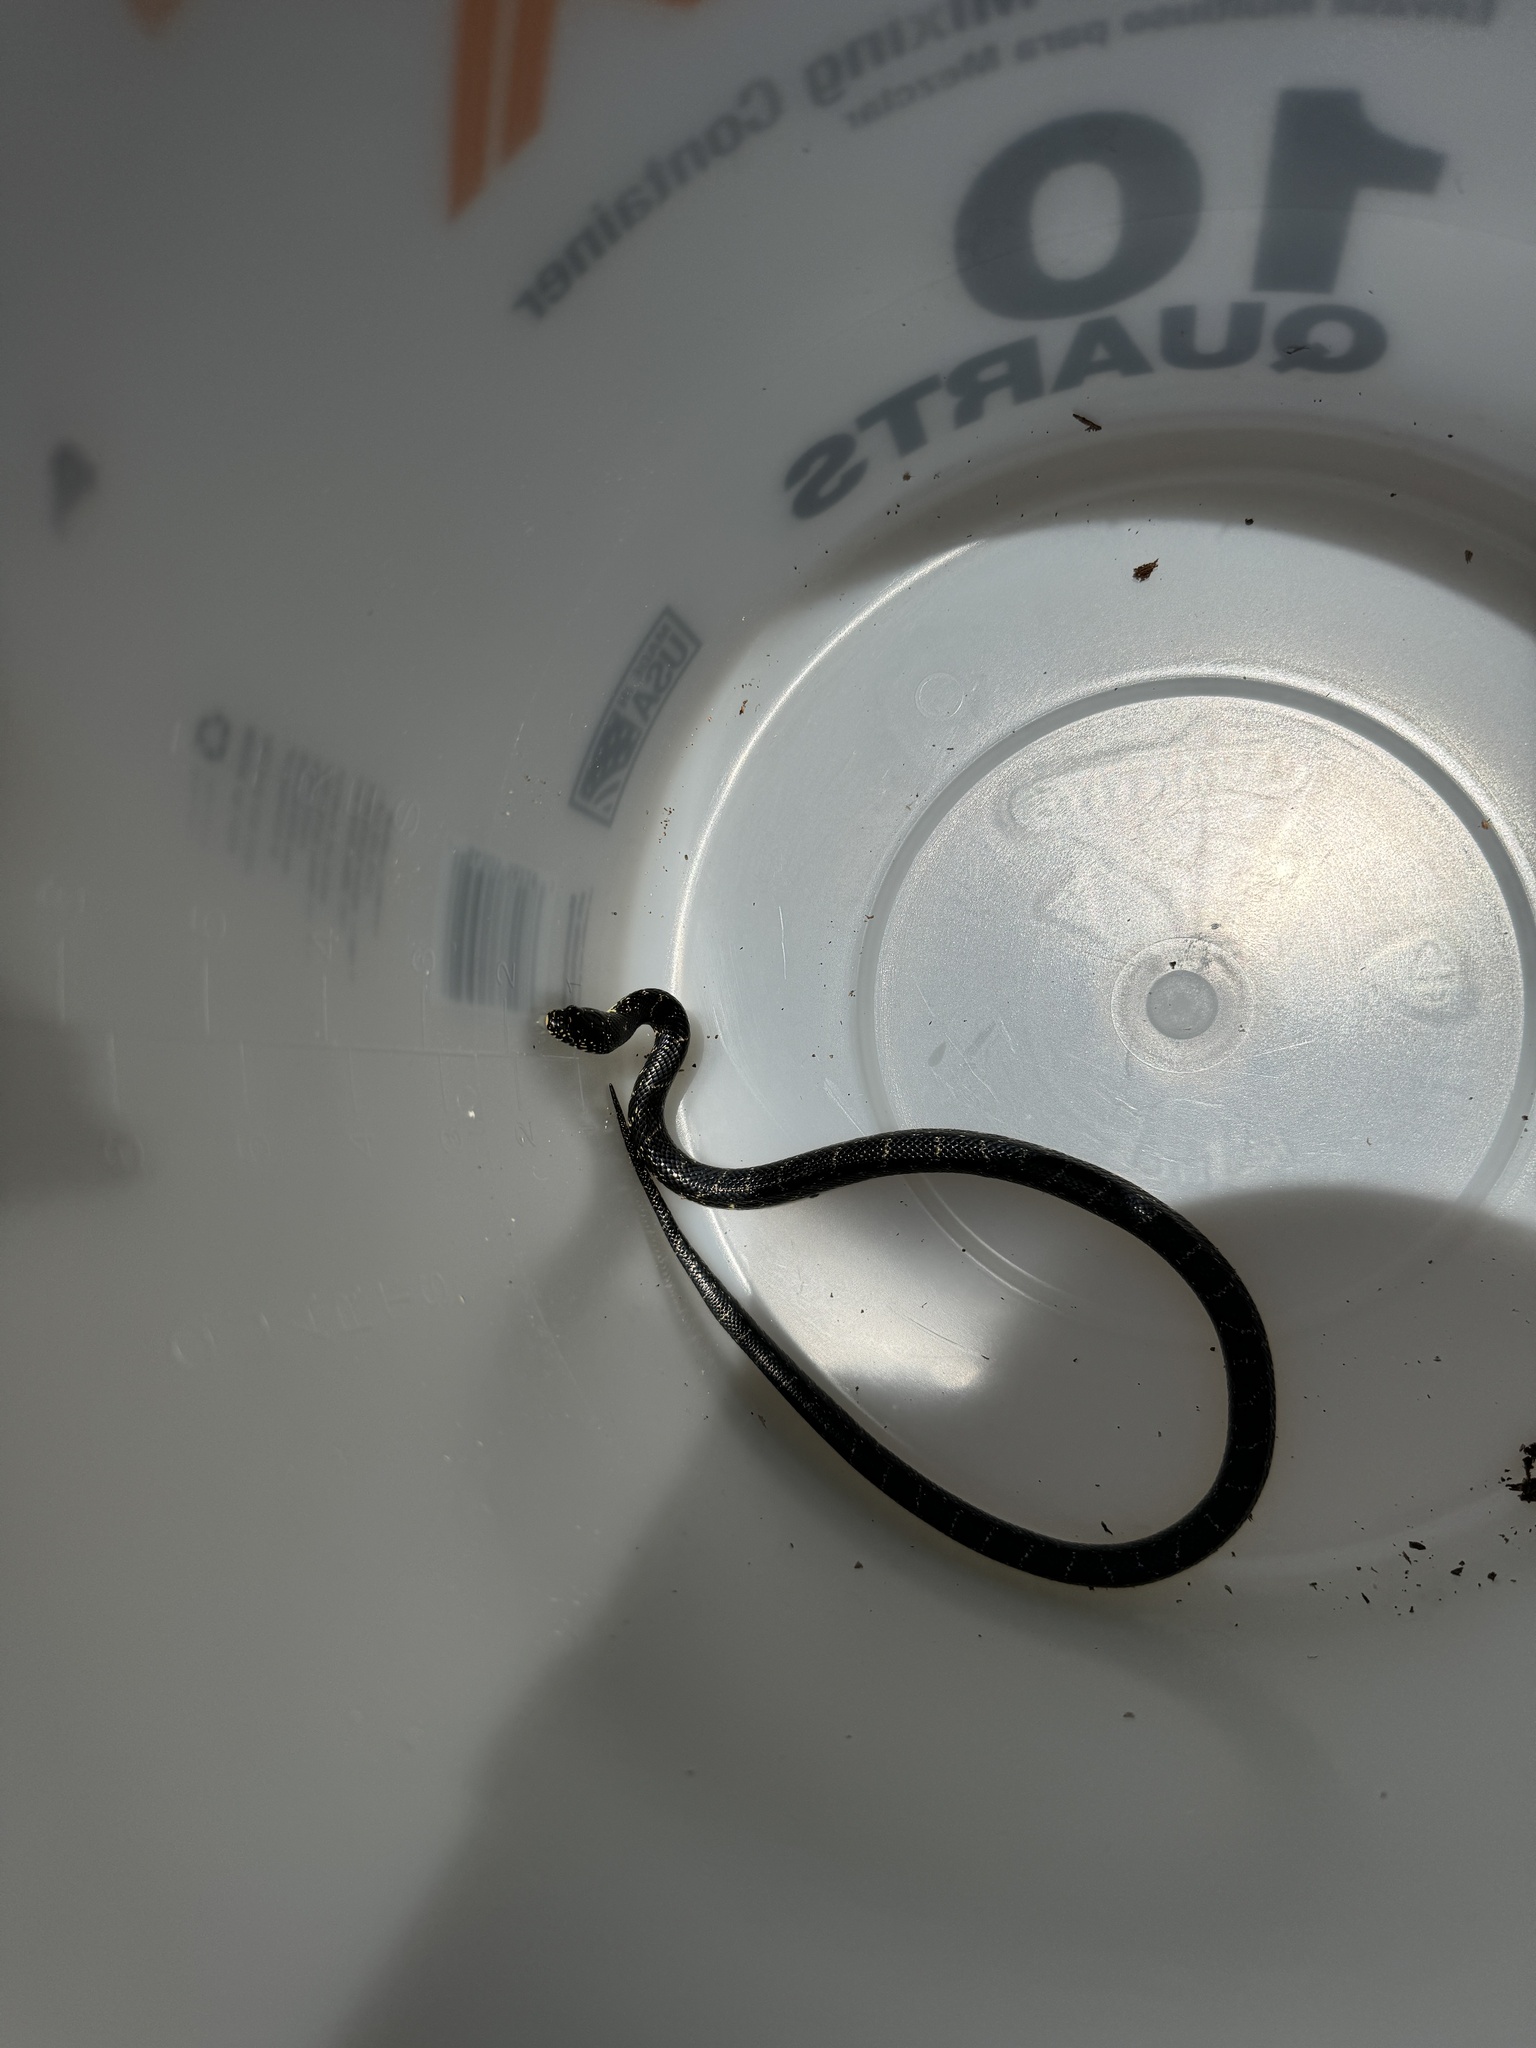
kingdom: Animalia
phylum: Chordata
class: Squamata
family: Colubridae
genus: Lampropeltis
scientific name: Lampropeltis nigra
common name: Black kingsnake
